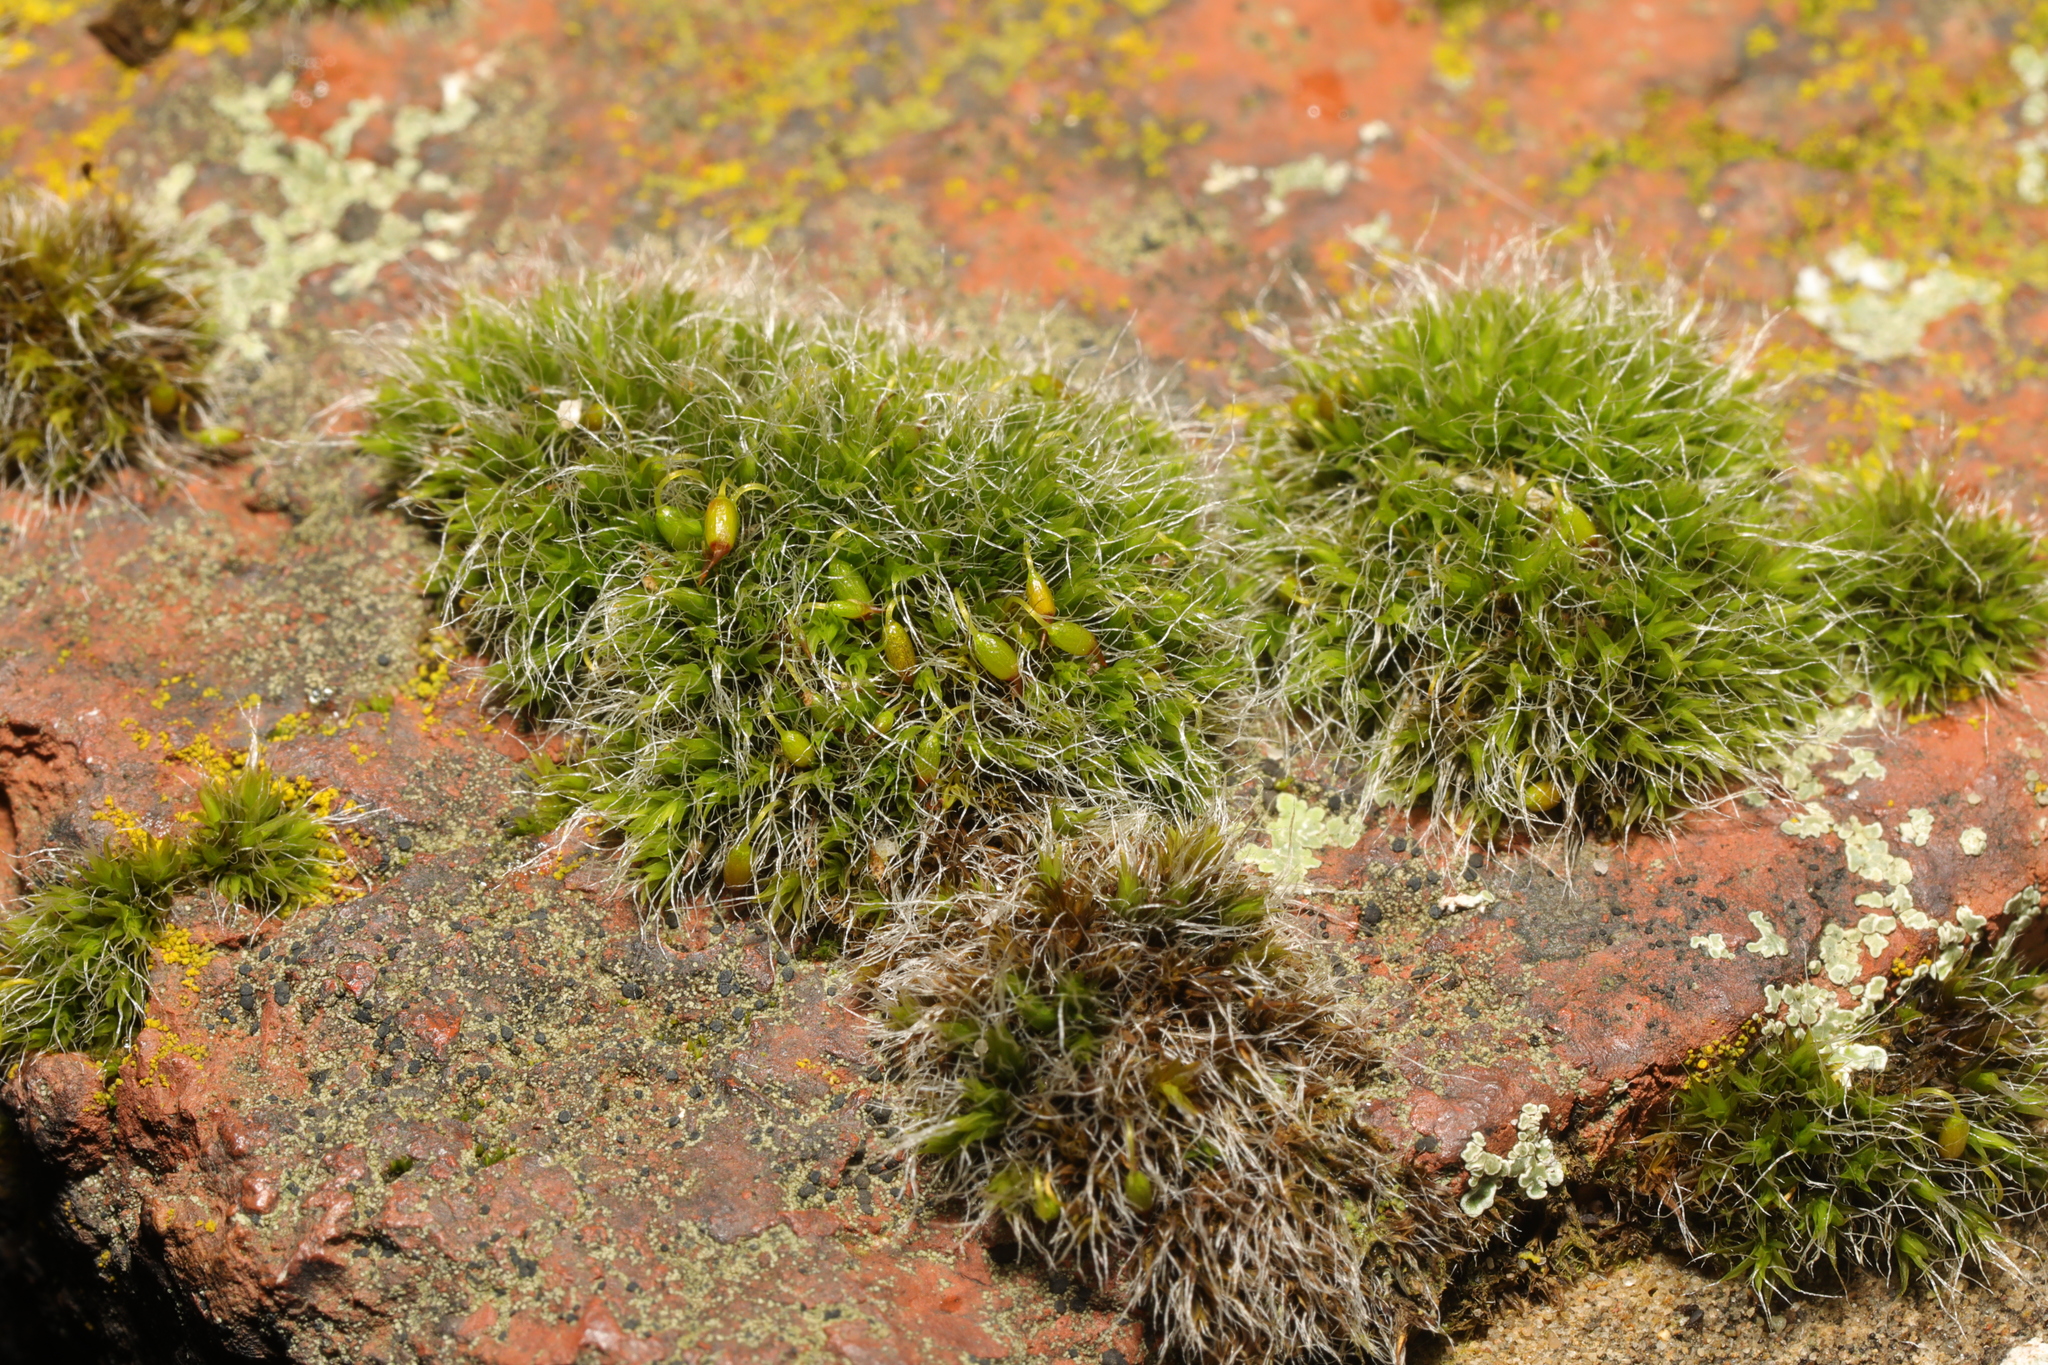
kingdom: Plantae
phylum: Bryophyta
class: Bryopsida
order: Grimmiales
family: Grimmiaceae
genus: Grimmia
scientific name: Grimmia pulvinata
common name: Grey-cushioned grimmia
